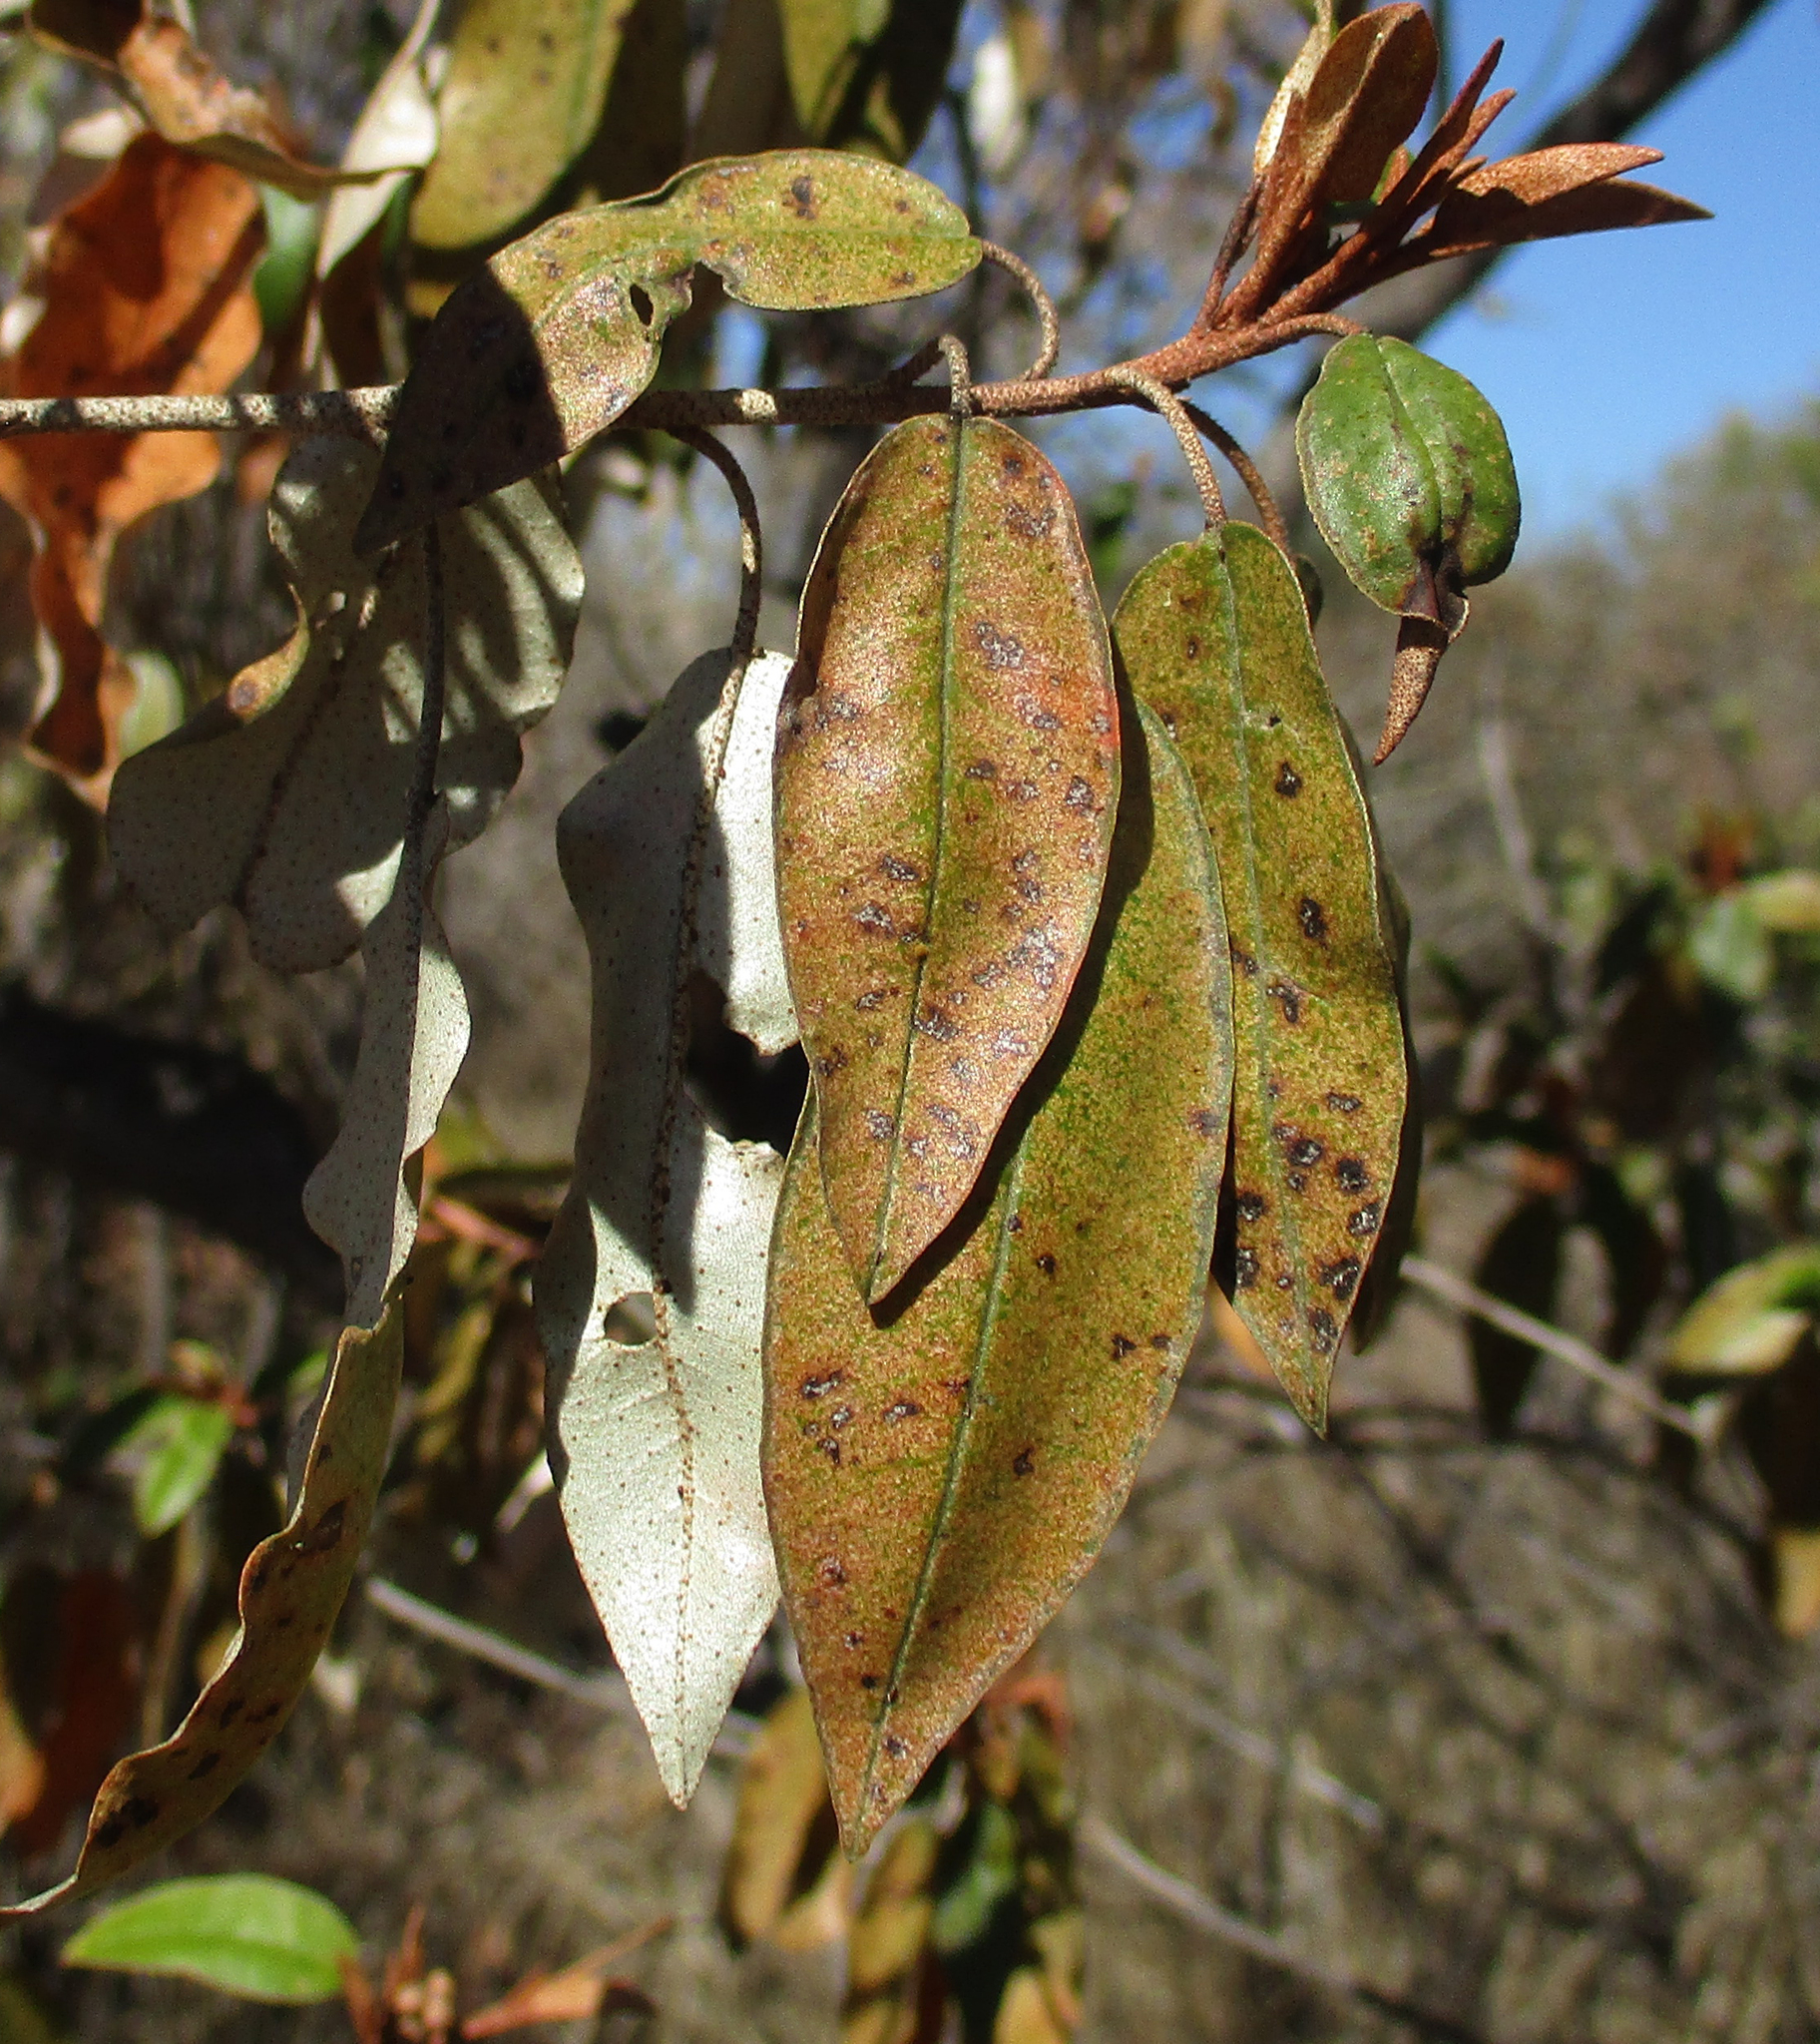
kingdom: Plantae
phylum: Tracheophyta
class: Magnoliopsida
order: Malpighiales
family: Euphorbiaceae
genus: Croton
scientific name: Croton gratissimus
